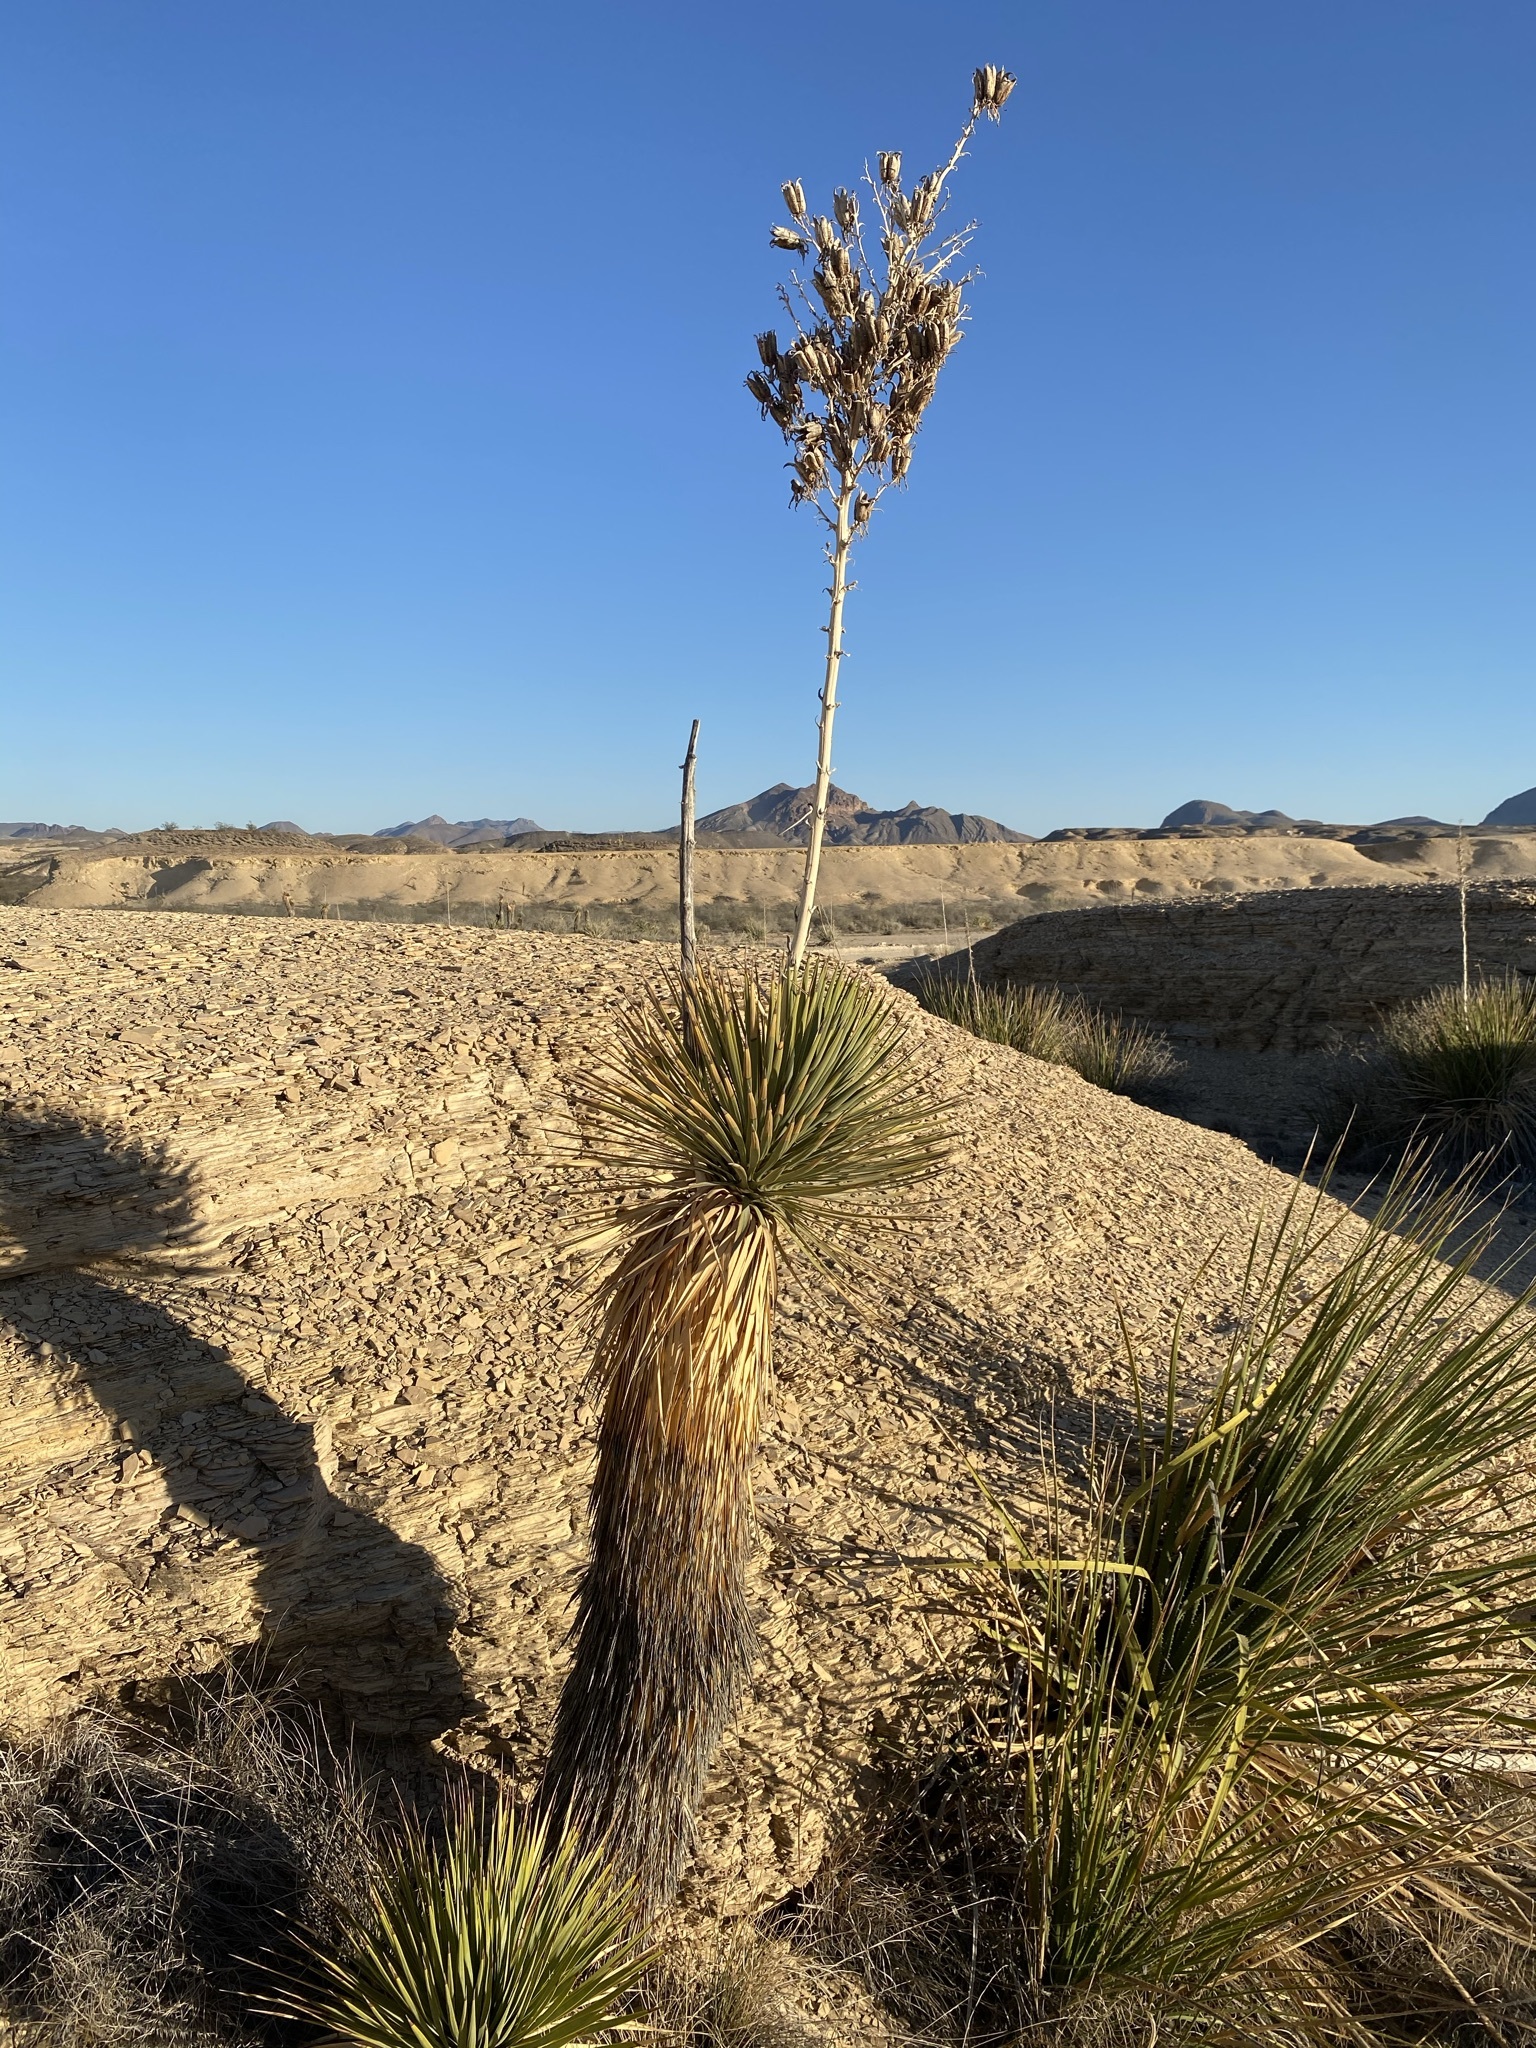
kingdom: Plantae
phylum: Tracheophyta
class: Liliopsida
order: Asparagales
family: Asparagaceae
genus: Yucca
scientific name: Yucca thompsoniana
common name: Trans-pecos yucca
